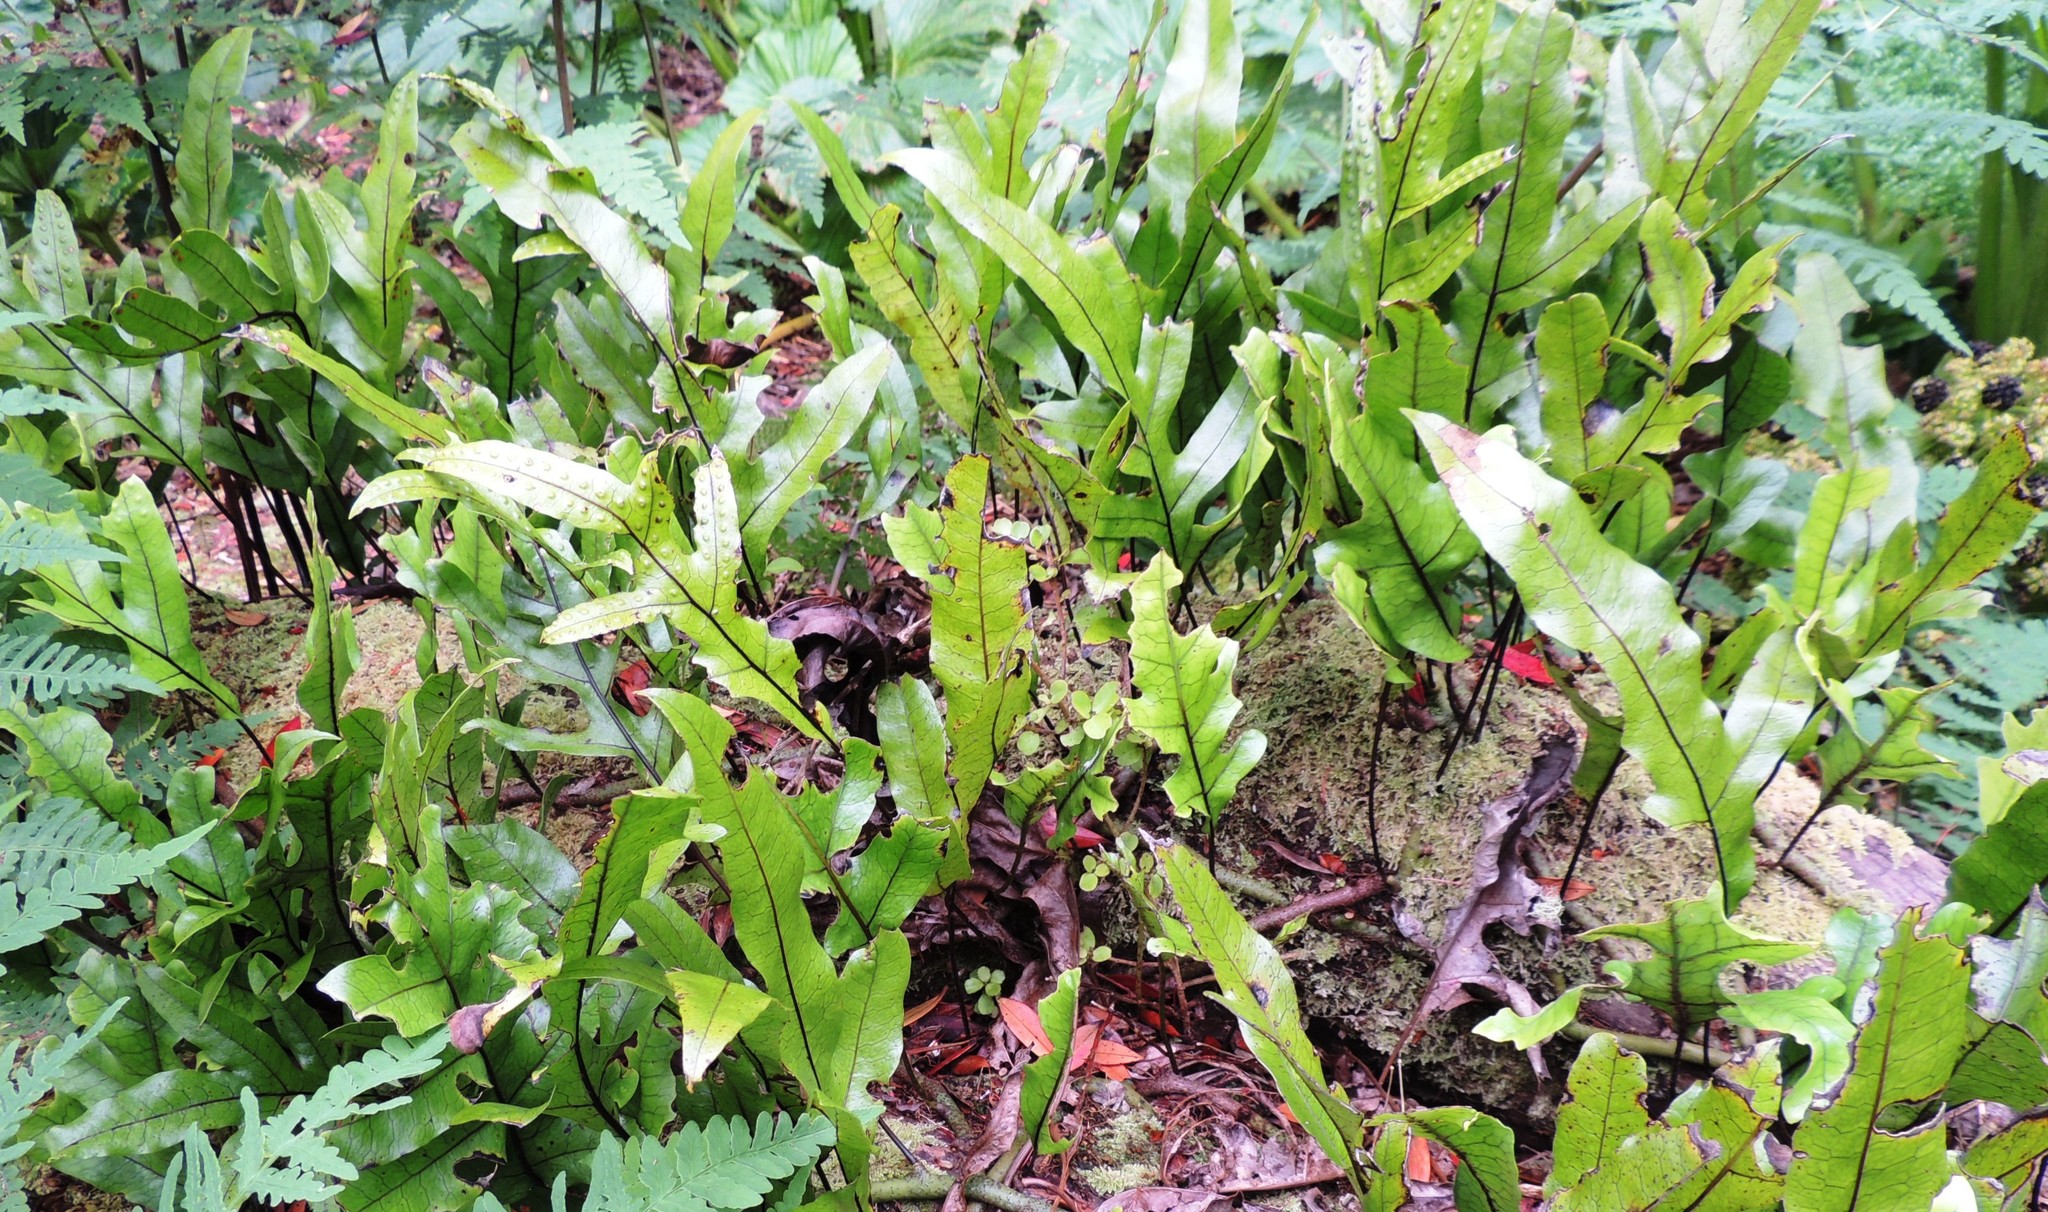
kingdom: Plantae
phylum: Tracheophyta
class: Polypodiopsida
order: Polypodiales
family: Polypodiaceae
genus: Lecanopteris
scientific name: Lecanopteris pustulata
